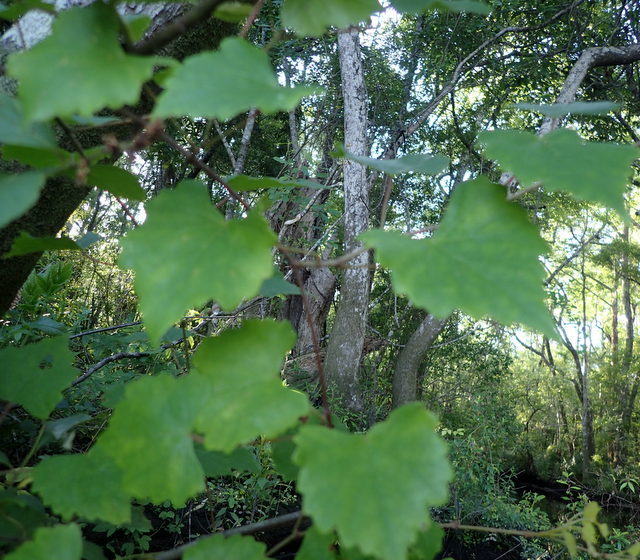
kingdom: Plantae
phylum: Tracheophyta
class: Magnoliopsida
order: Vitales
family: Vitaceae
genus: Vitis
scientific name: Vitis rotundifolia
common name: Muscadine grape
